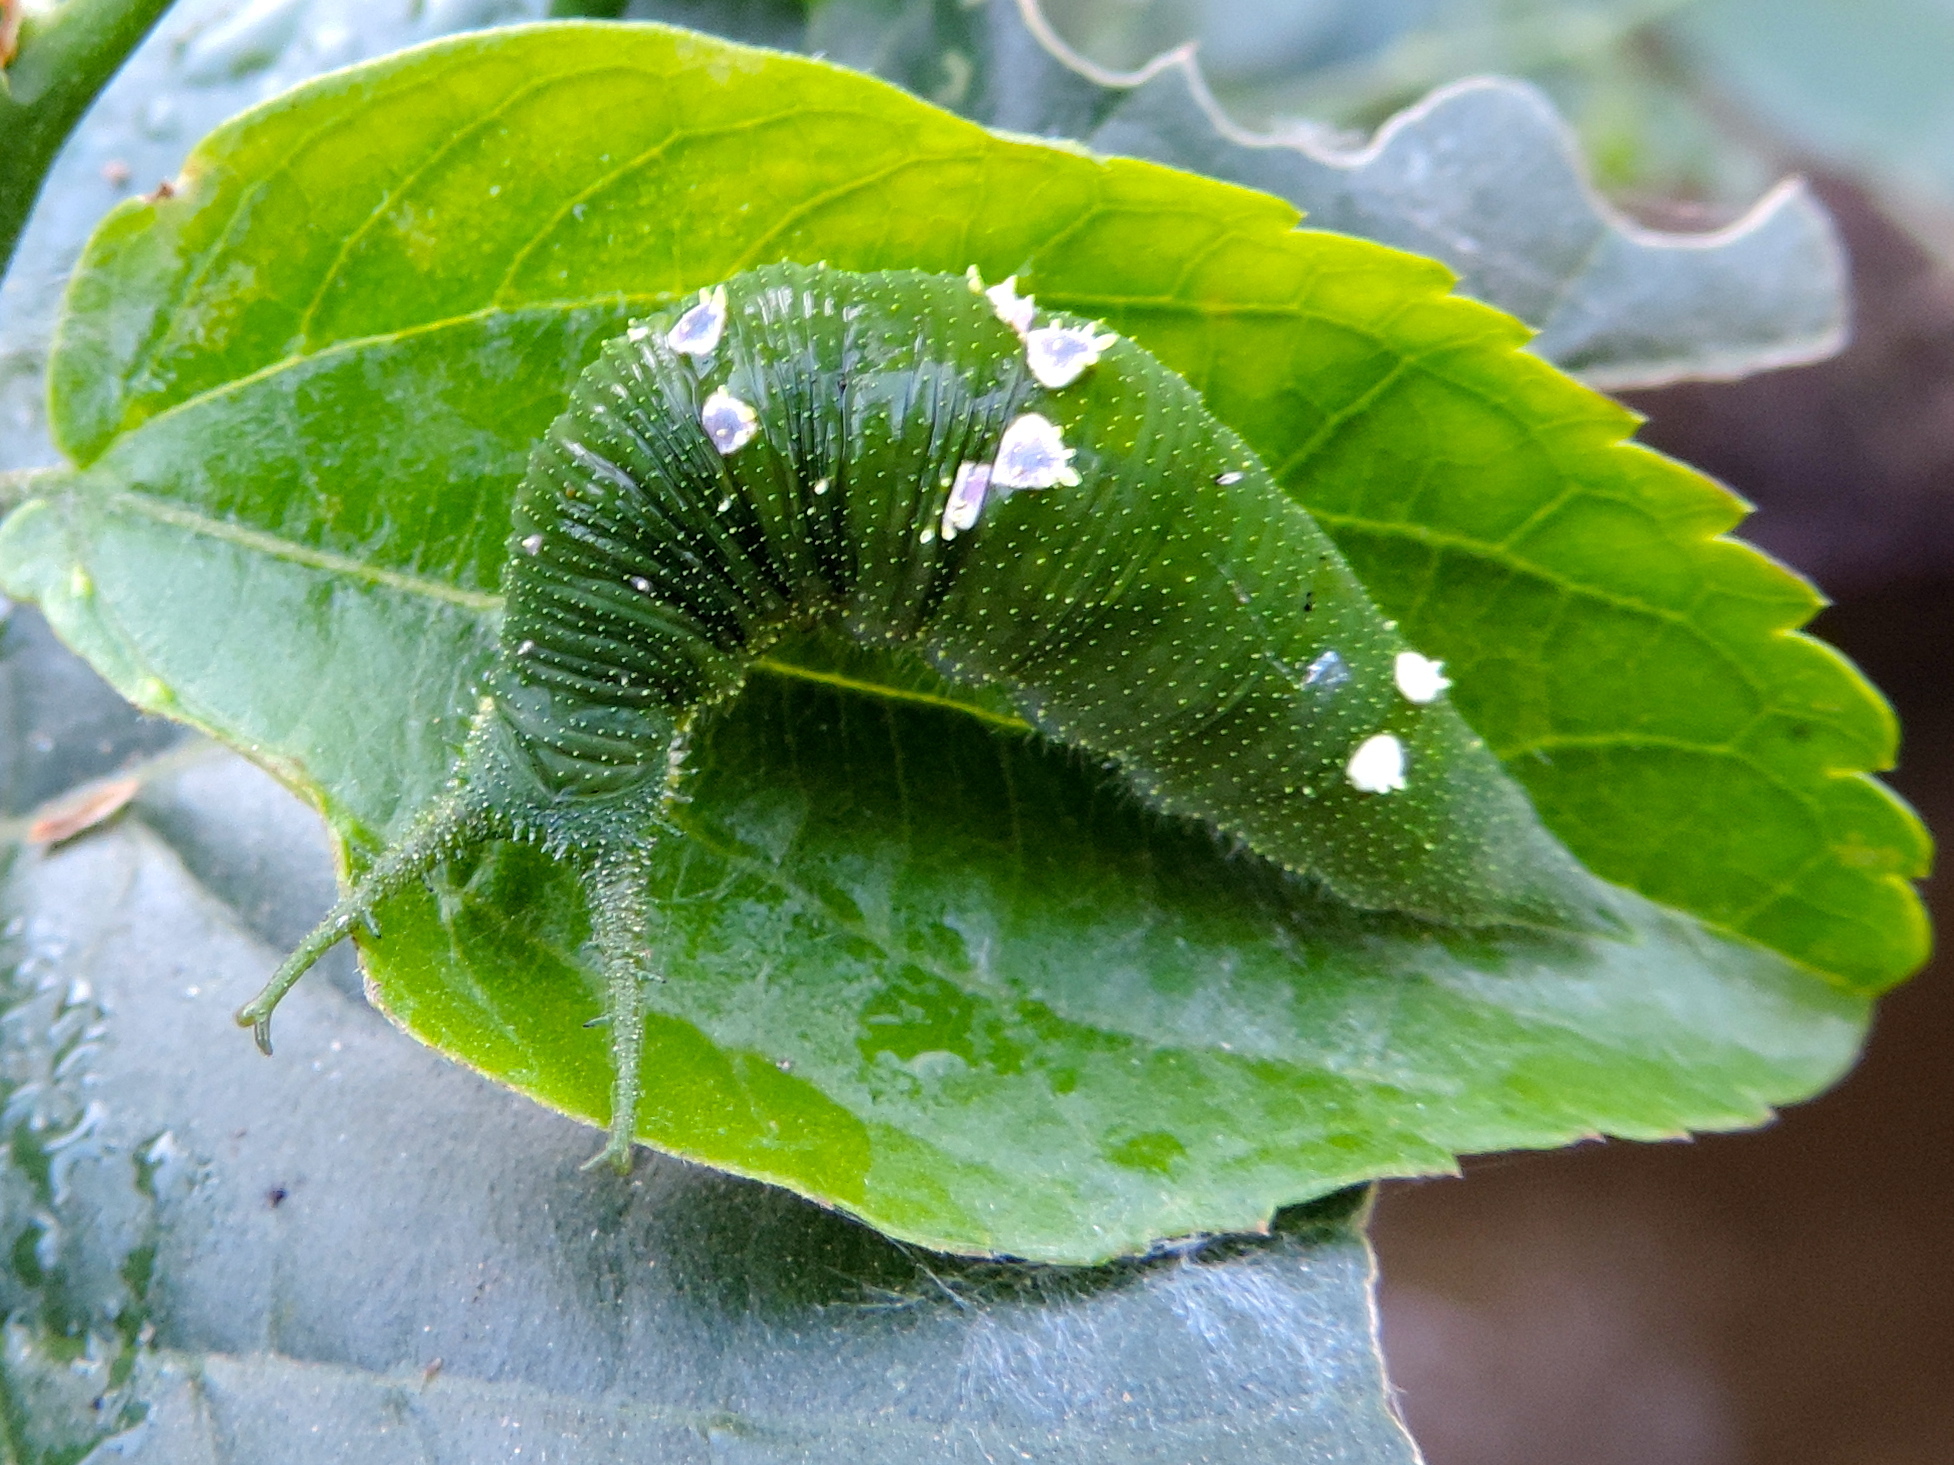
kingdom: Animalia
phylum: Arthropoda
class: Insecta
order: Lepidoptera
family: Nymphalidae
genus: Doxocopa
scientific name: Doxocopa
